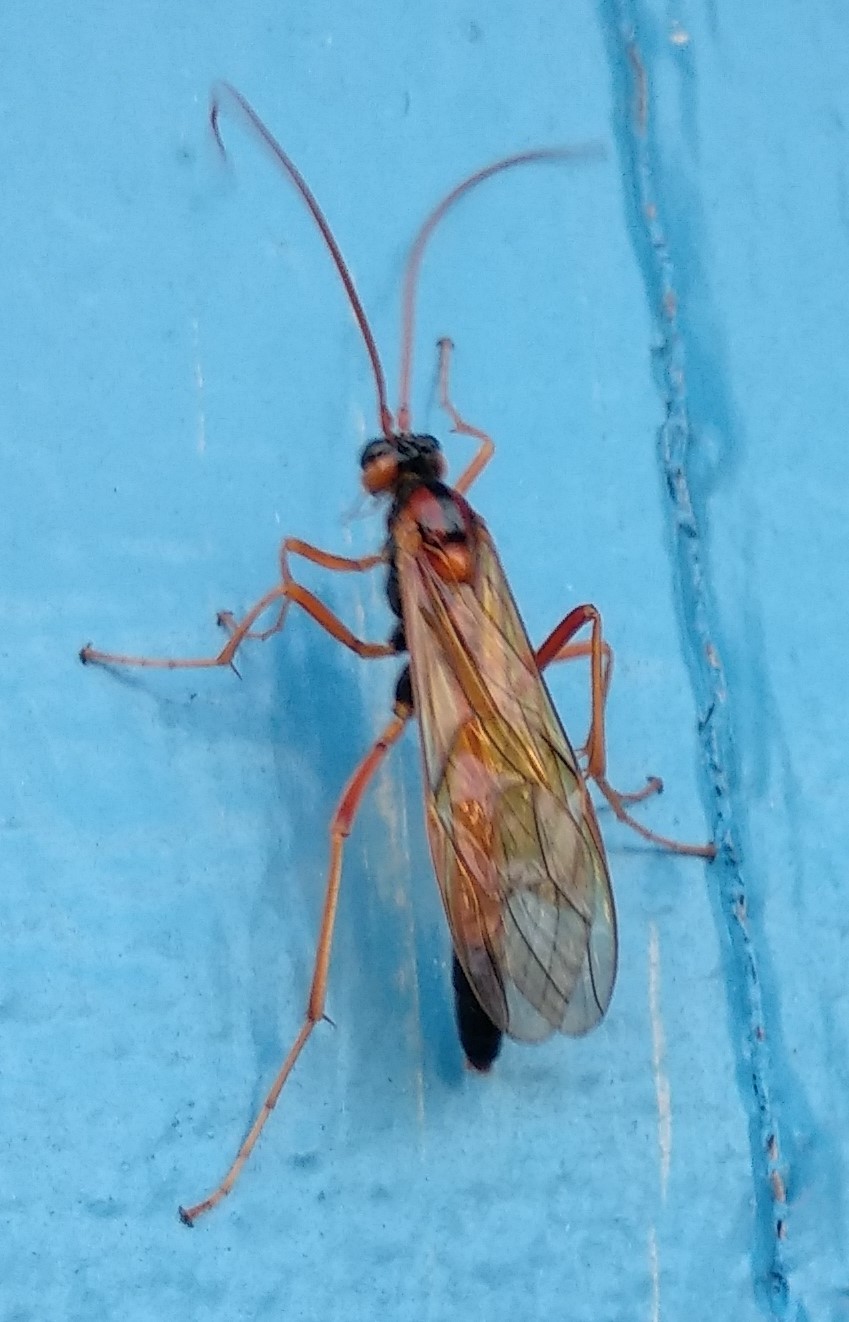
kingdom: Animalia
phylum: Arthropoda
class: Insecta
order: Hymenoptera
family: Ichneumonidae
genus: Opheltes
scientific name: Opheltes glaucopterus
